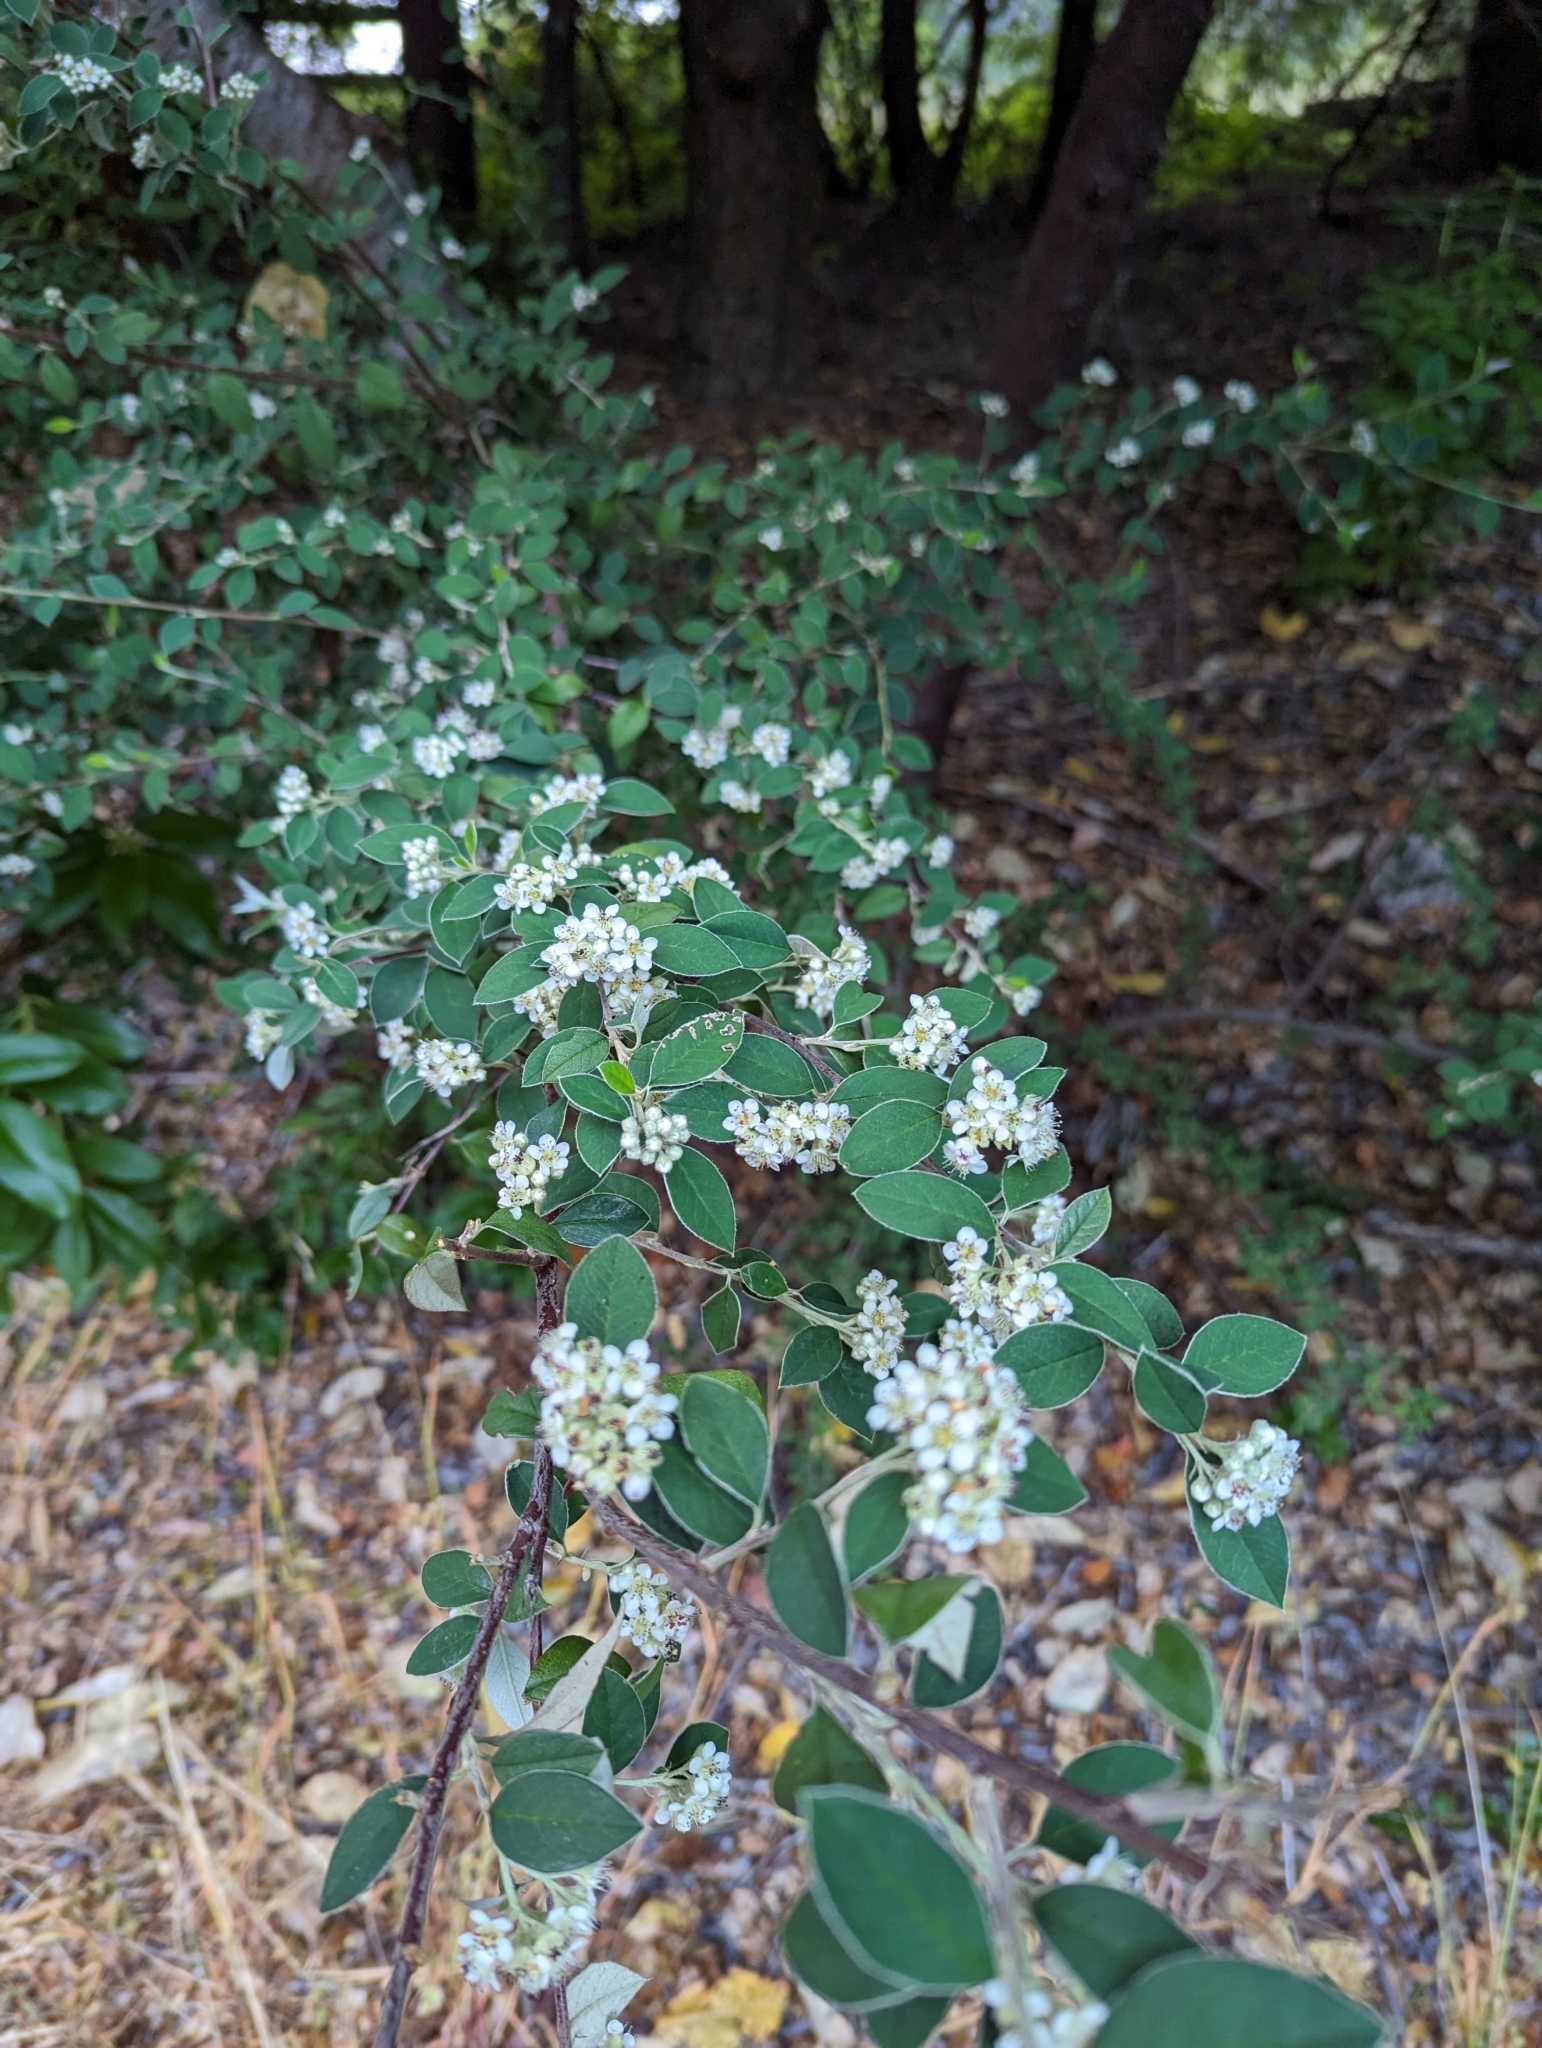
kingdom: Plantae
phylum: Tracheophyta
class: Magnoliopsida
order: Rosales
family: Rosaceae
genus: Cotoneaster
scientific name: Cotoneaster pannosus
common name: Silverleaf cotoneaster
